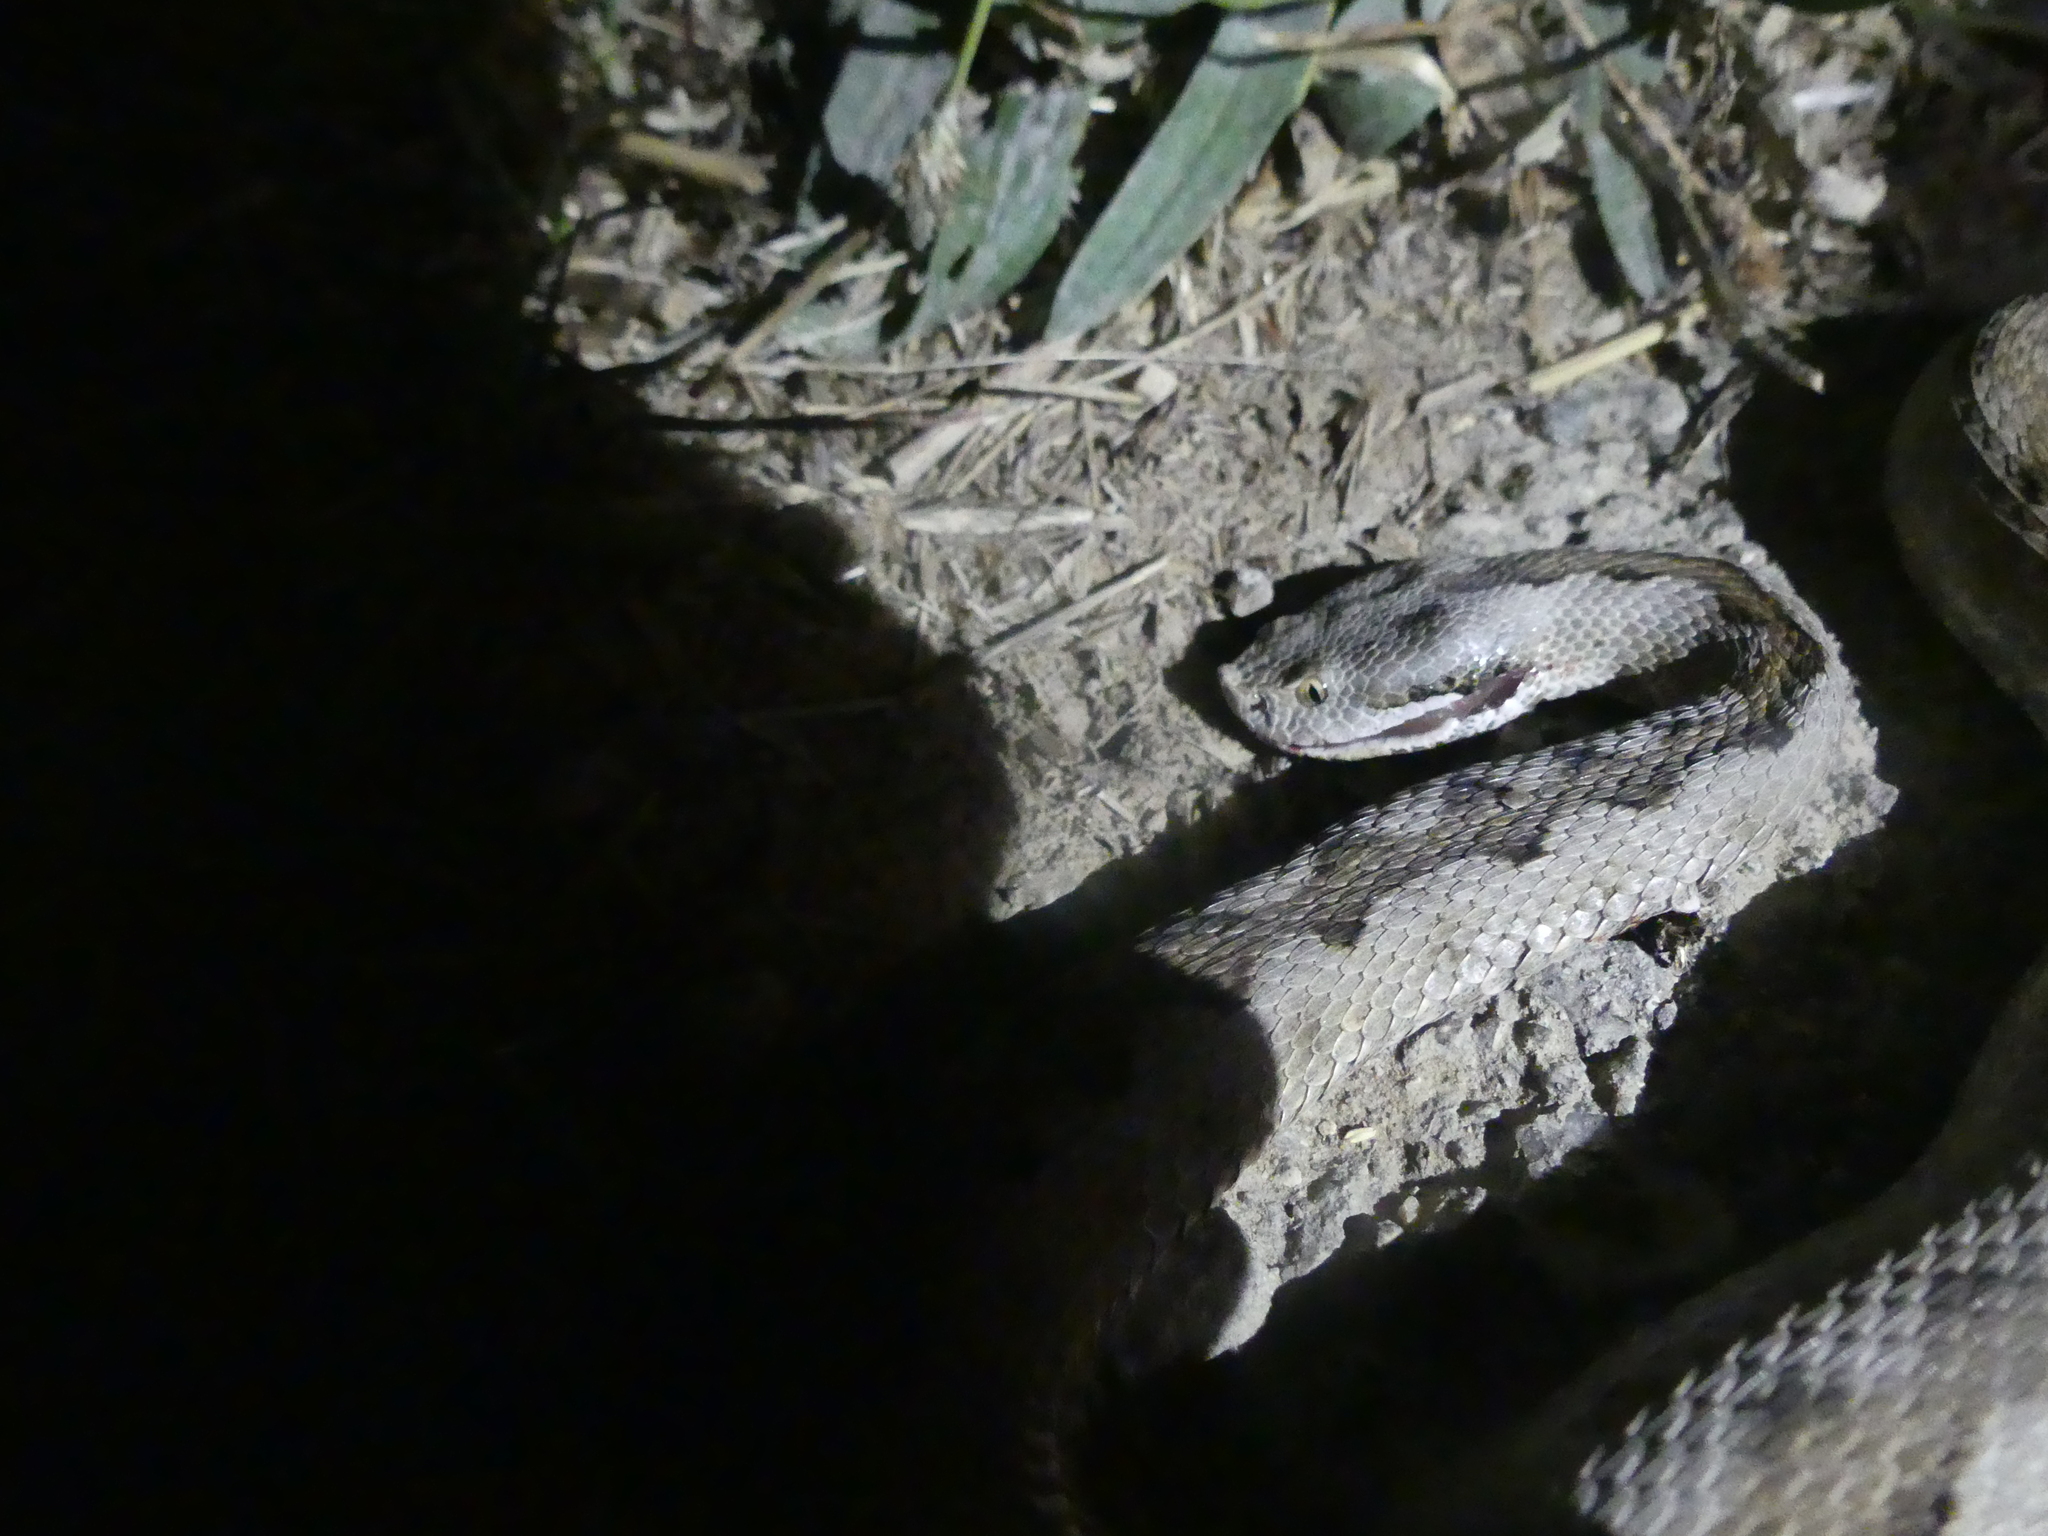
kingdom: Animalia
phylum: Chordata
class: Squamata
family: Viperidae
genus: Vipera
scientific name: Vipera latastei
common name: Lataste's viper
